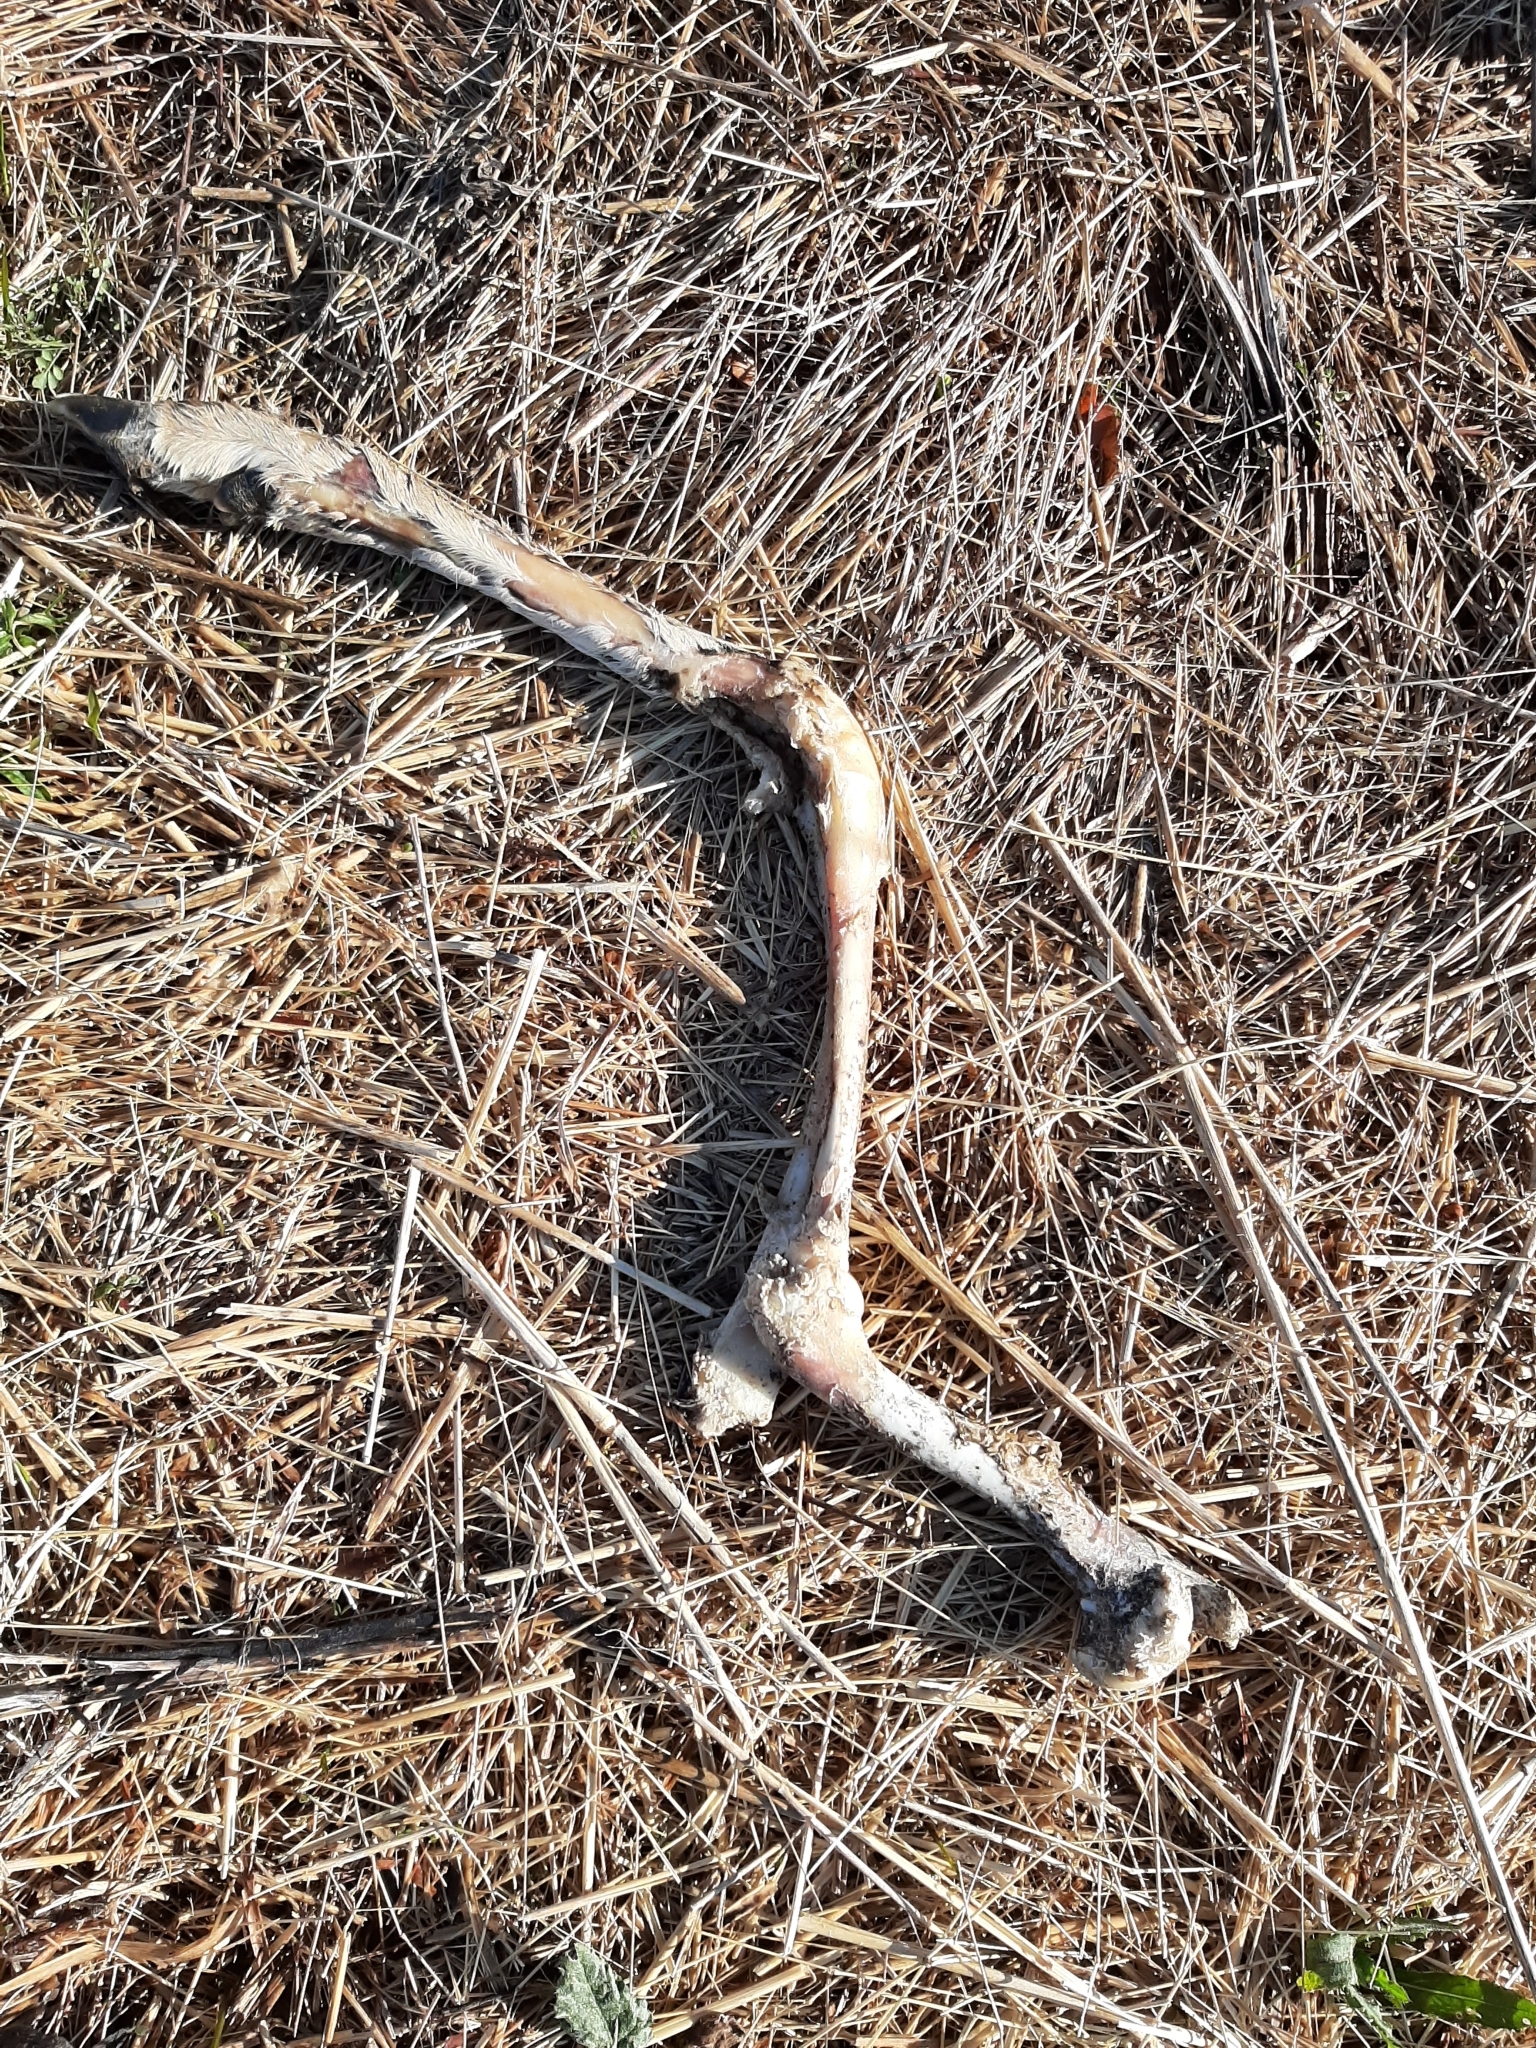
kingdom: Animalia
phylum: Chordata
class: Mammalia
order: Artiodactyla
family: Cervidae
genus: Odocoileus
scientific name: Odocoileus virginianus
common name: White-tailed deer
